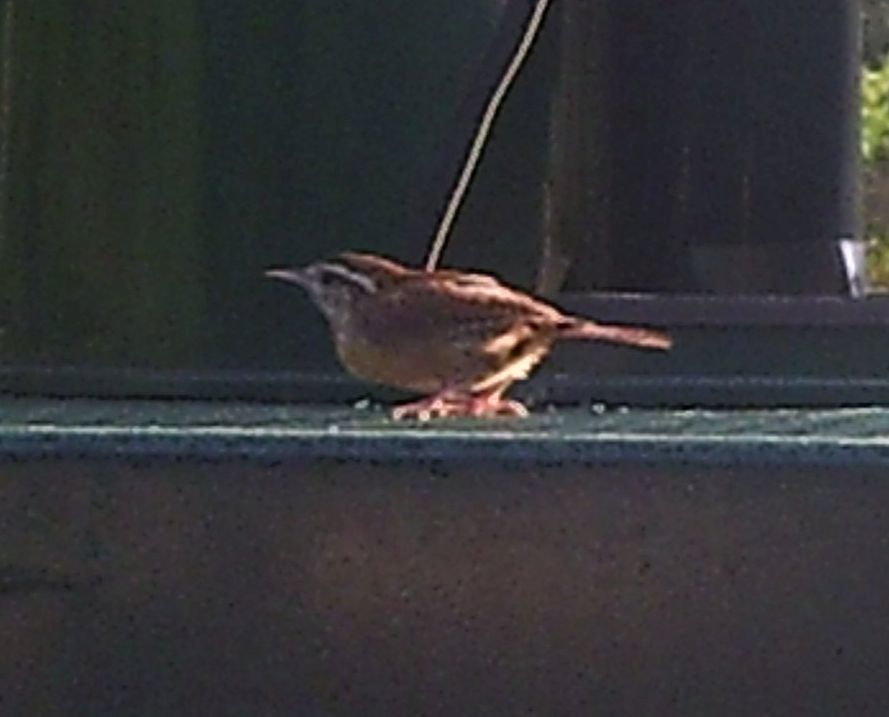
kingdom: Animalia
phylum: Chordata
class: Aves
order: Passeriformes
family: Troglodytidae
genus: Thryothorus
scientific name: Thryothorus ludovicianus
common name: Carolina wren
